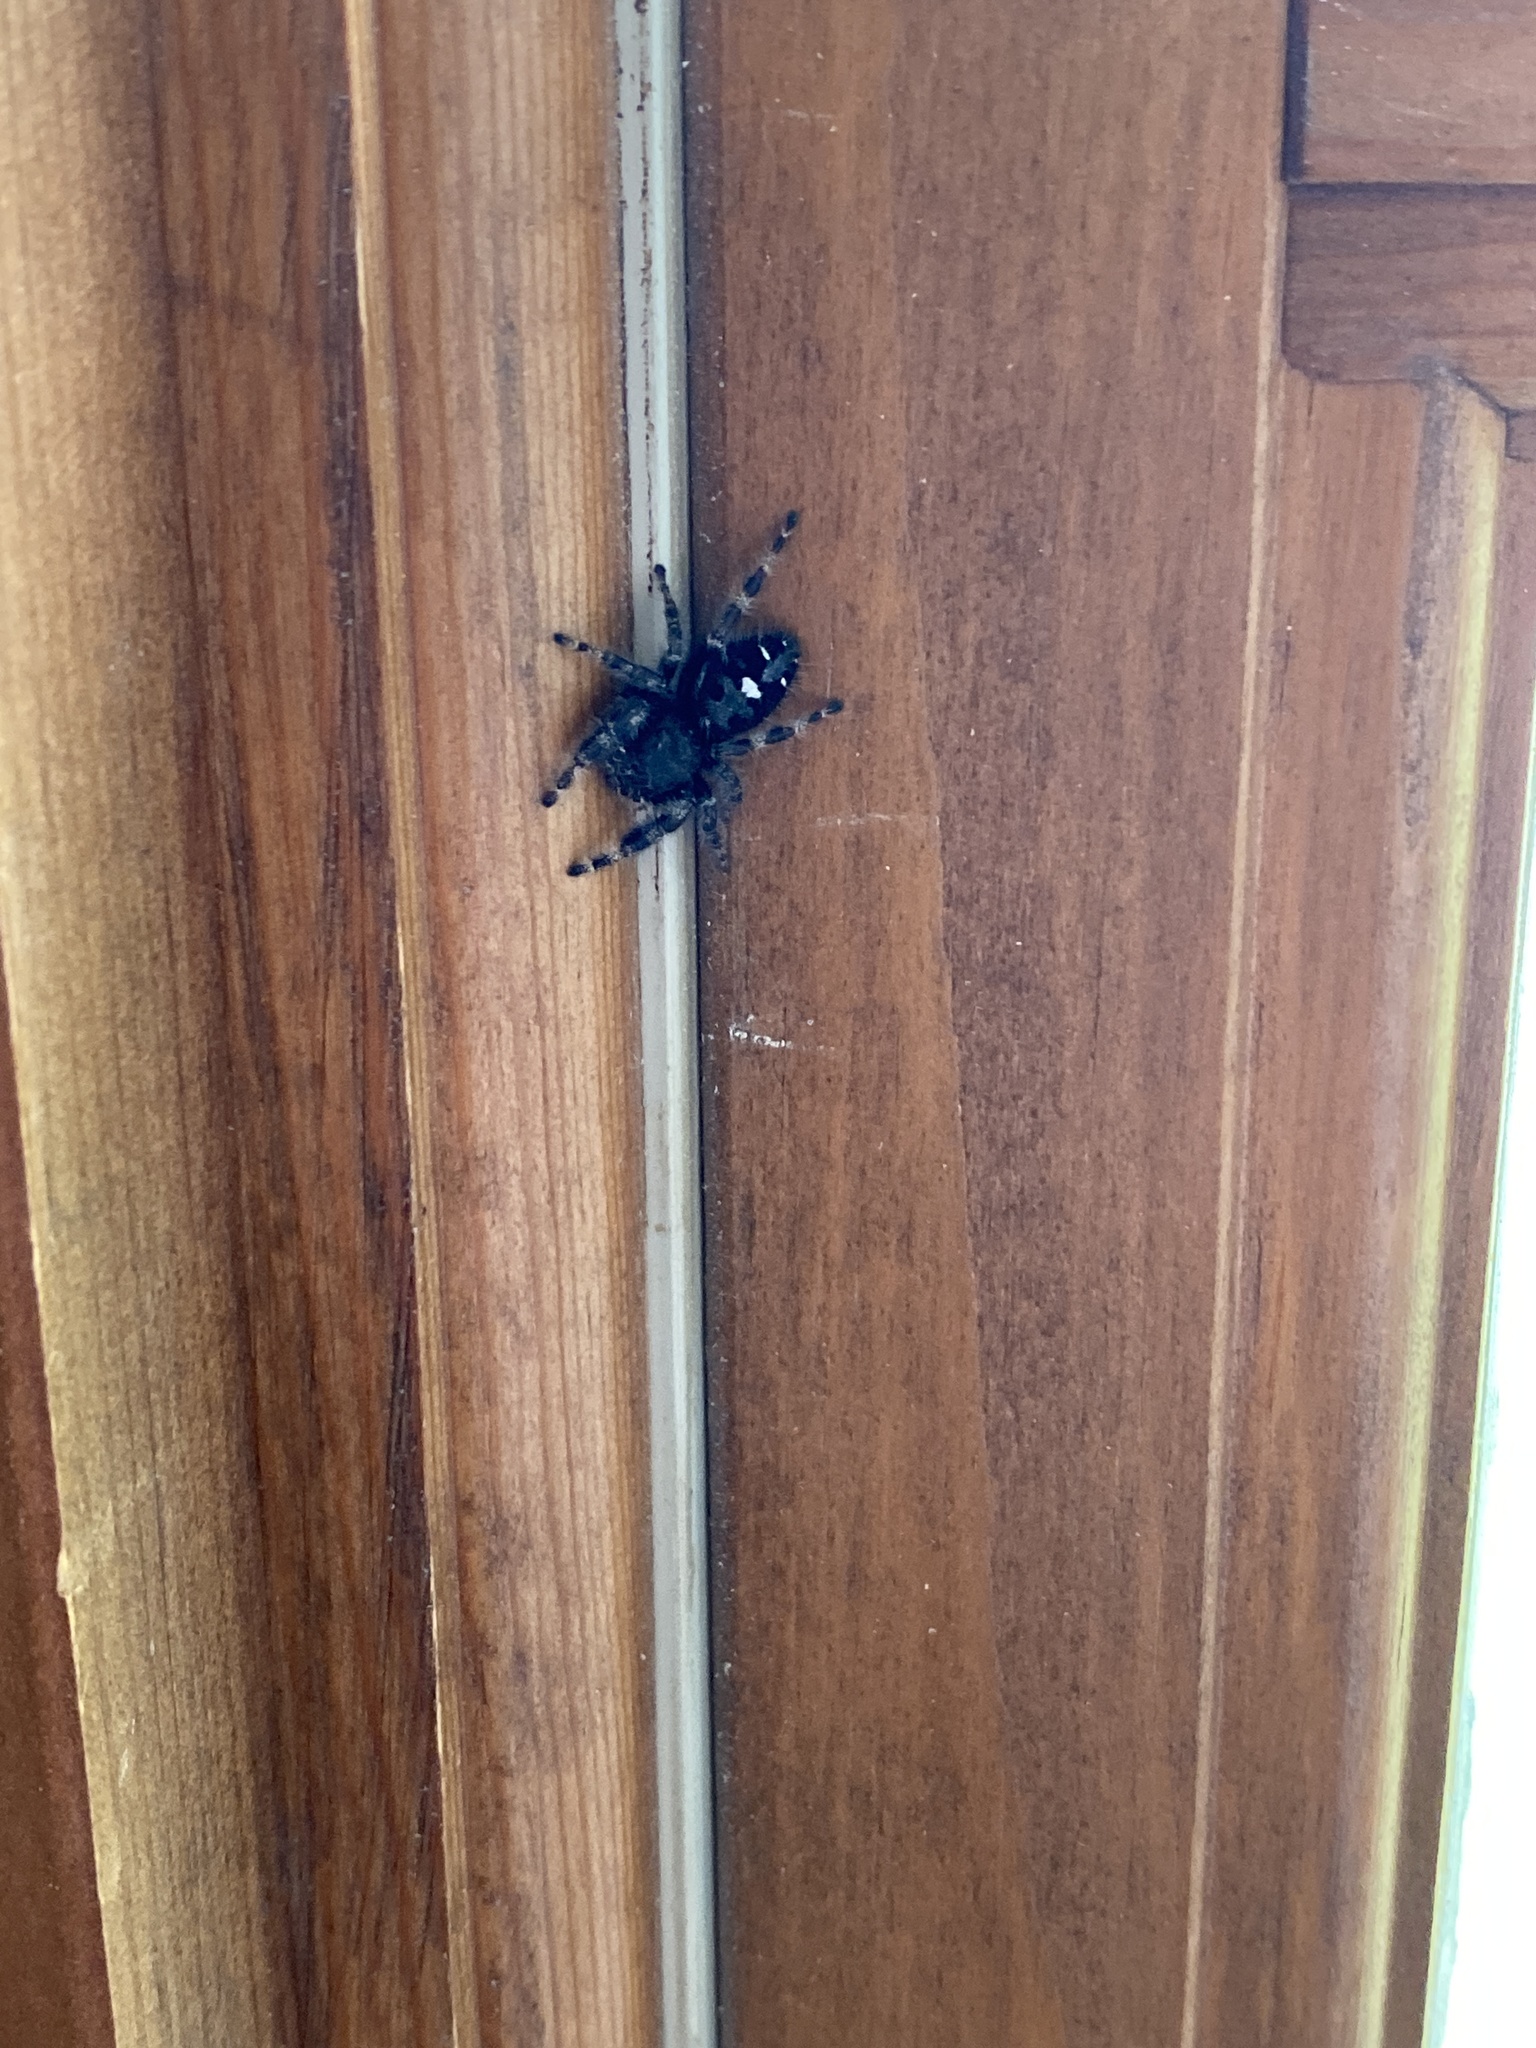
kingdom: Animalia
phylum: Arthropoda
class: Arachnida
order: Araneae
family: Salticidae
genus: Phidippus
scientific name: Phidippus audax
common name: Bold jumper
